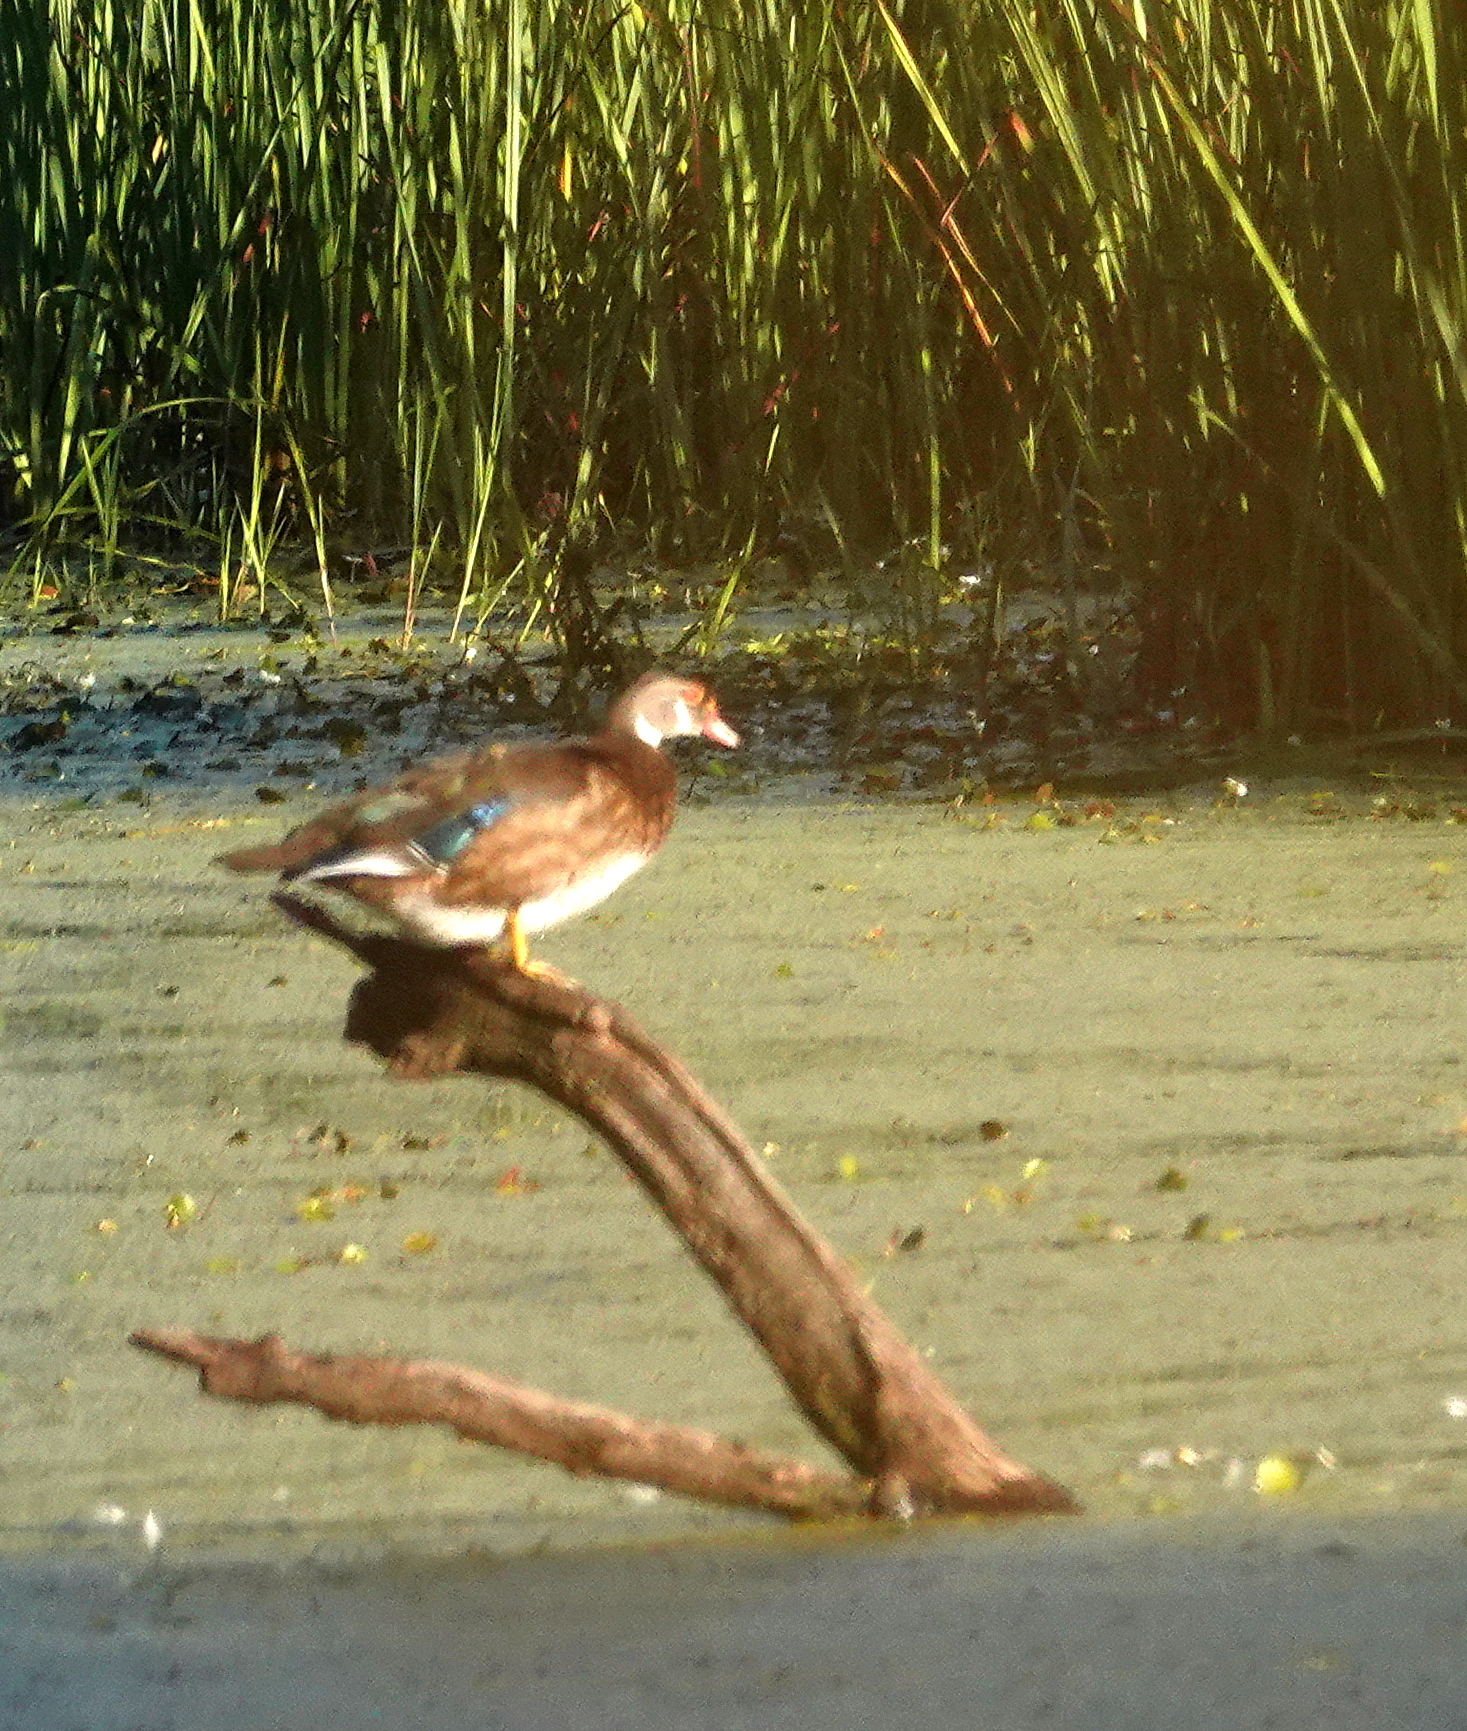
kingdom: Animalia
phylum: Chordata
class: Aves
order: Anseriformes
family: Anatidae
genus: Aix
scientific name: Aix sponsa
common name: Wood duck
